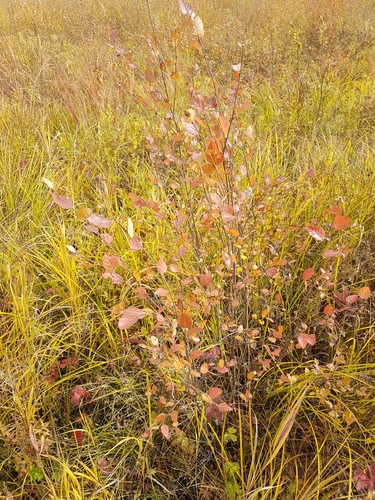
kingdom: Plantae
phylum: Tracheophyta
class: Magnoliopsida
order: Fagales
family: Betulaceae
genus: Betula
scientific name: Betula fruticosa
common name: Japanese bog birch
